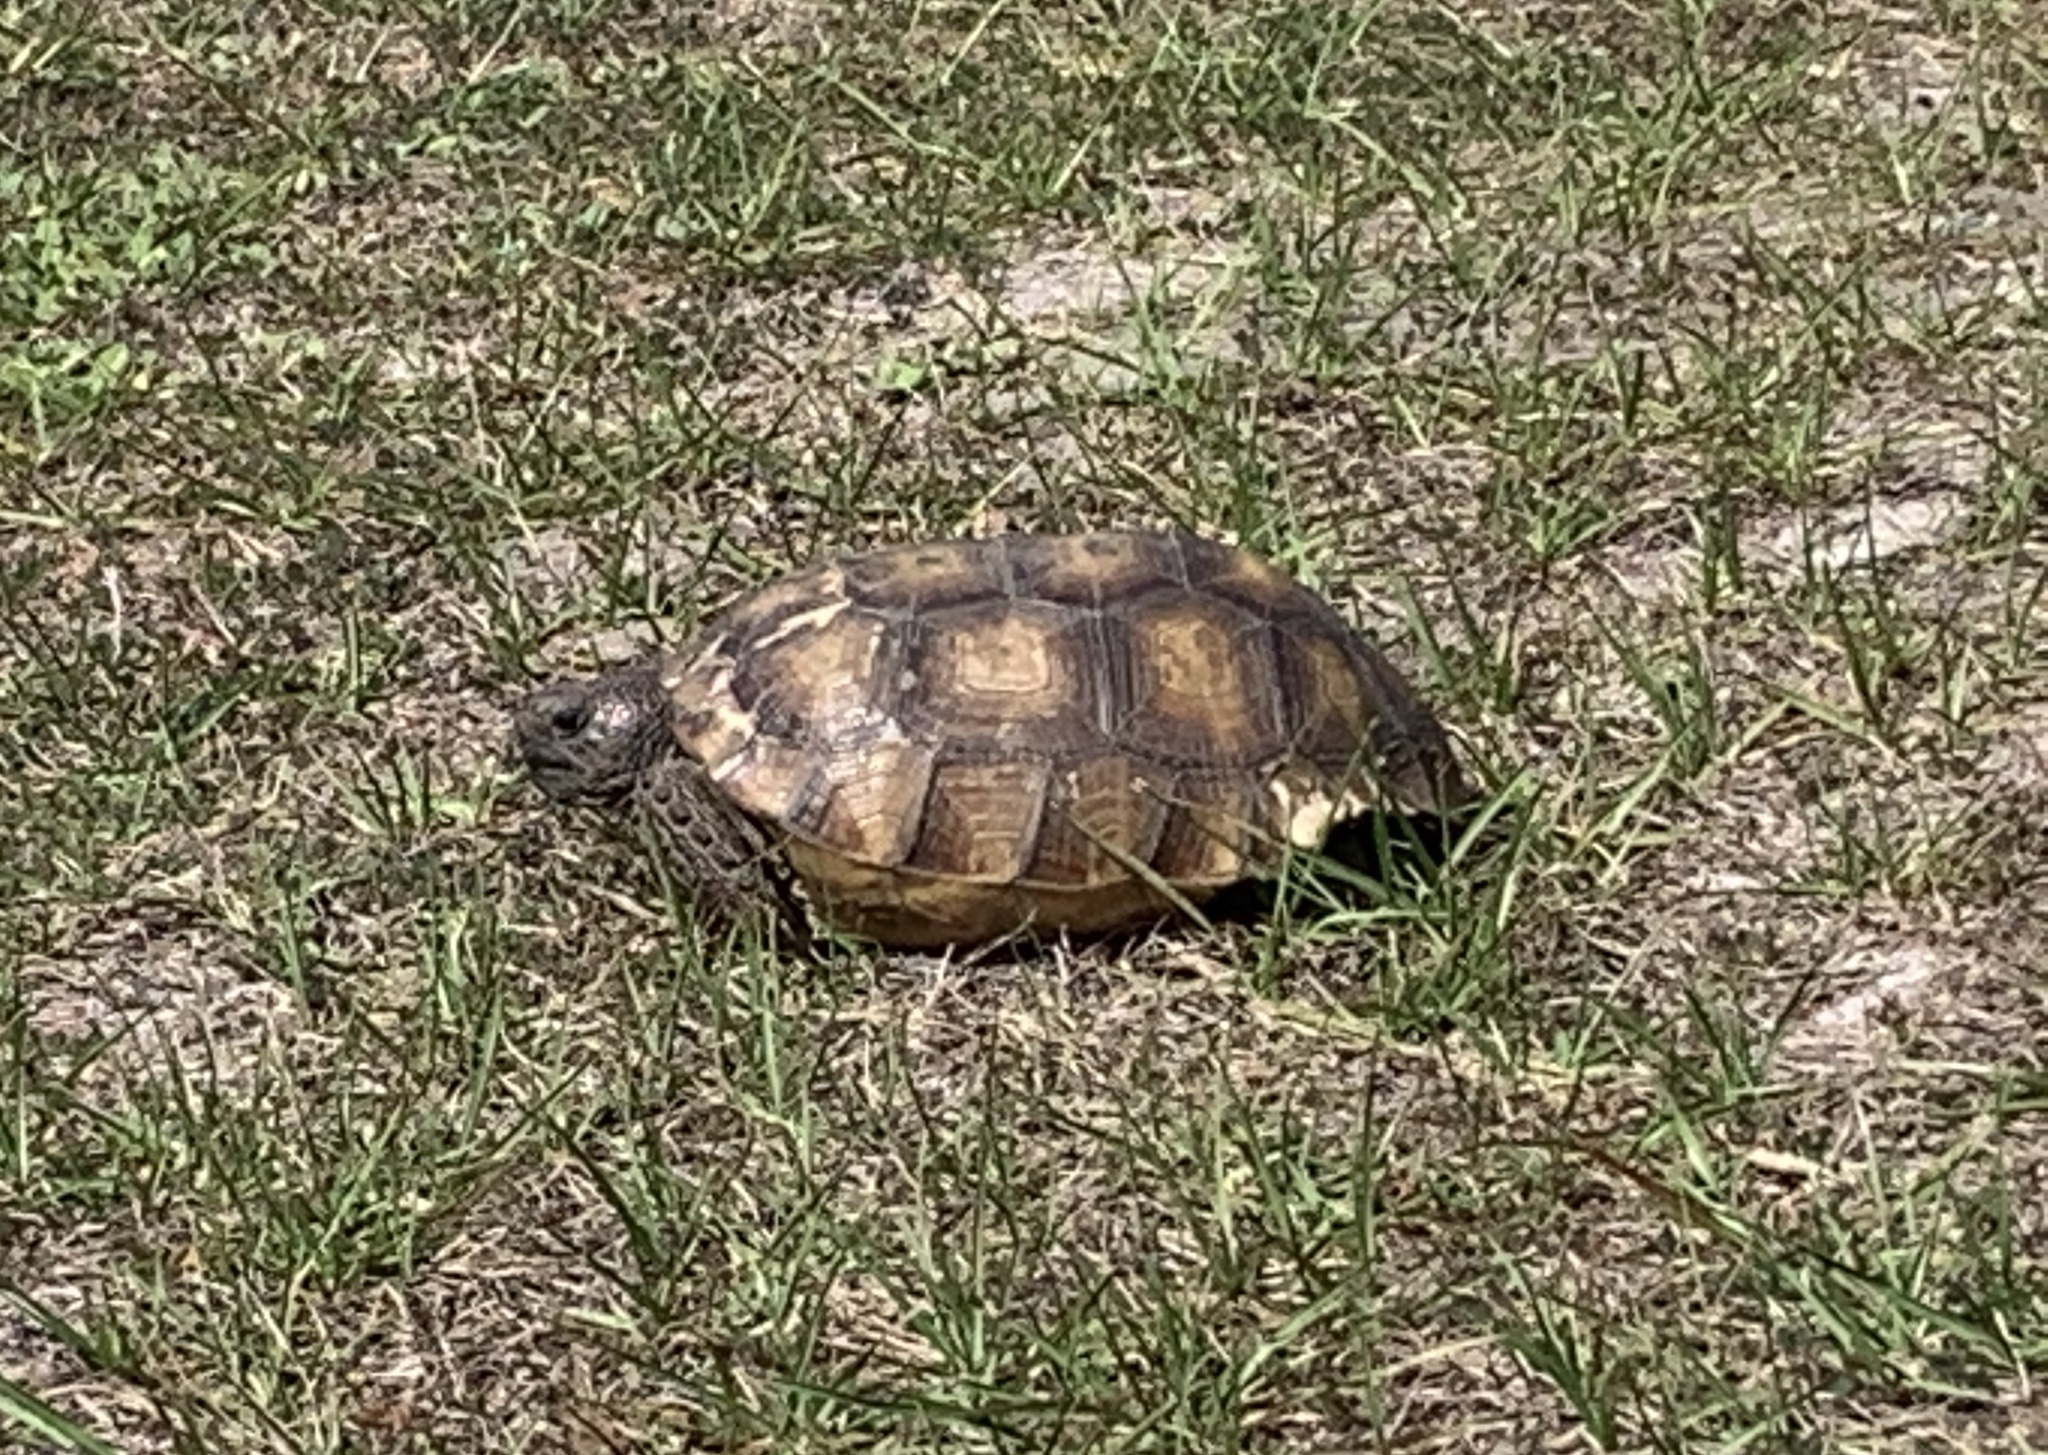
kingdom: Animalia
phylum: Chordata
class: Testudines
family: Testudinidae
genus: Gopherus
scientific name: Gopherus polyphemus
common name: Florida gopher tortoise
